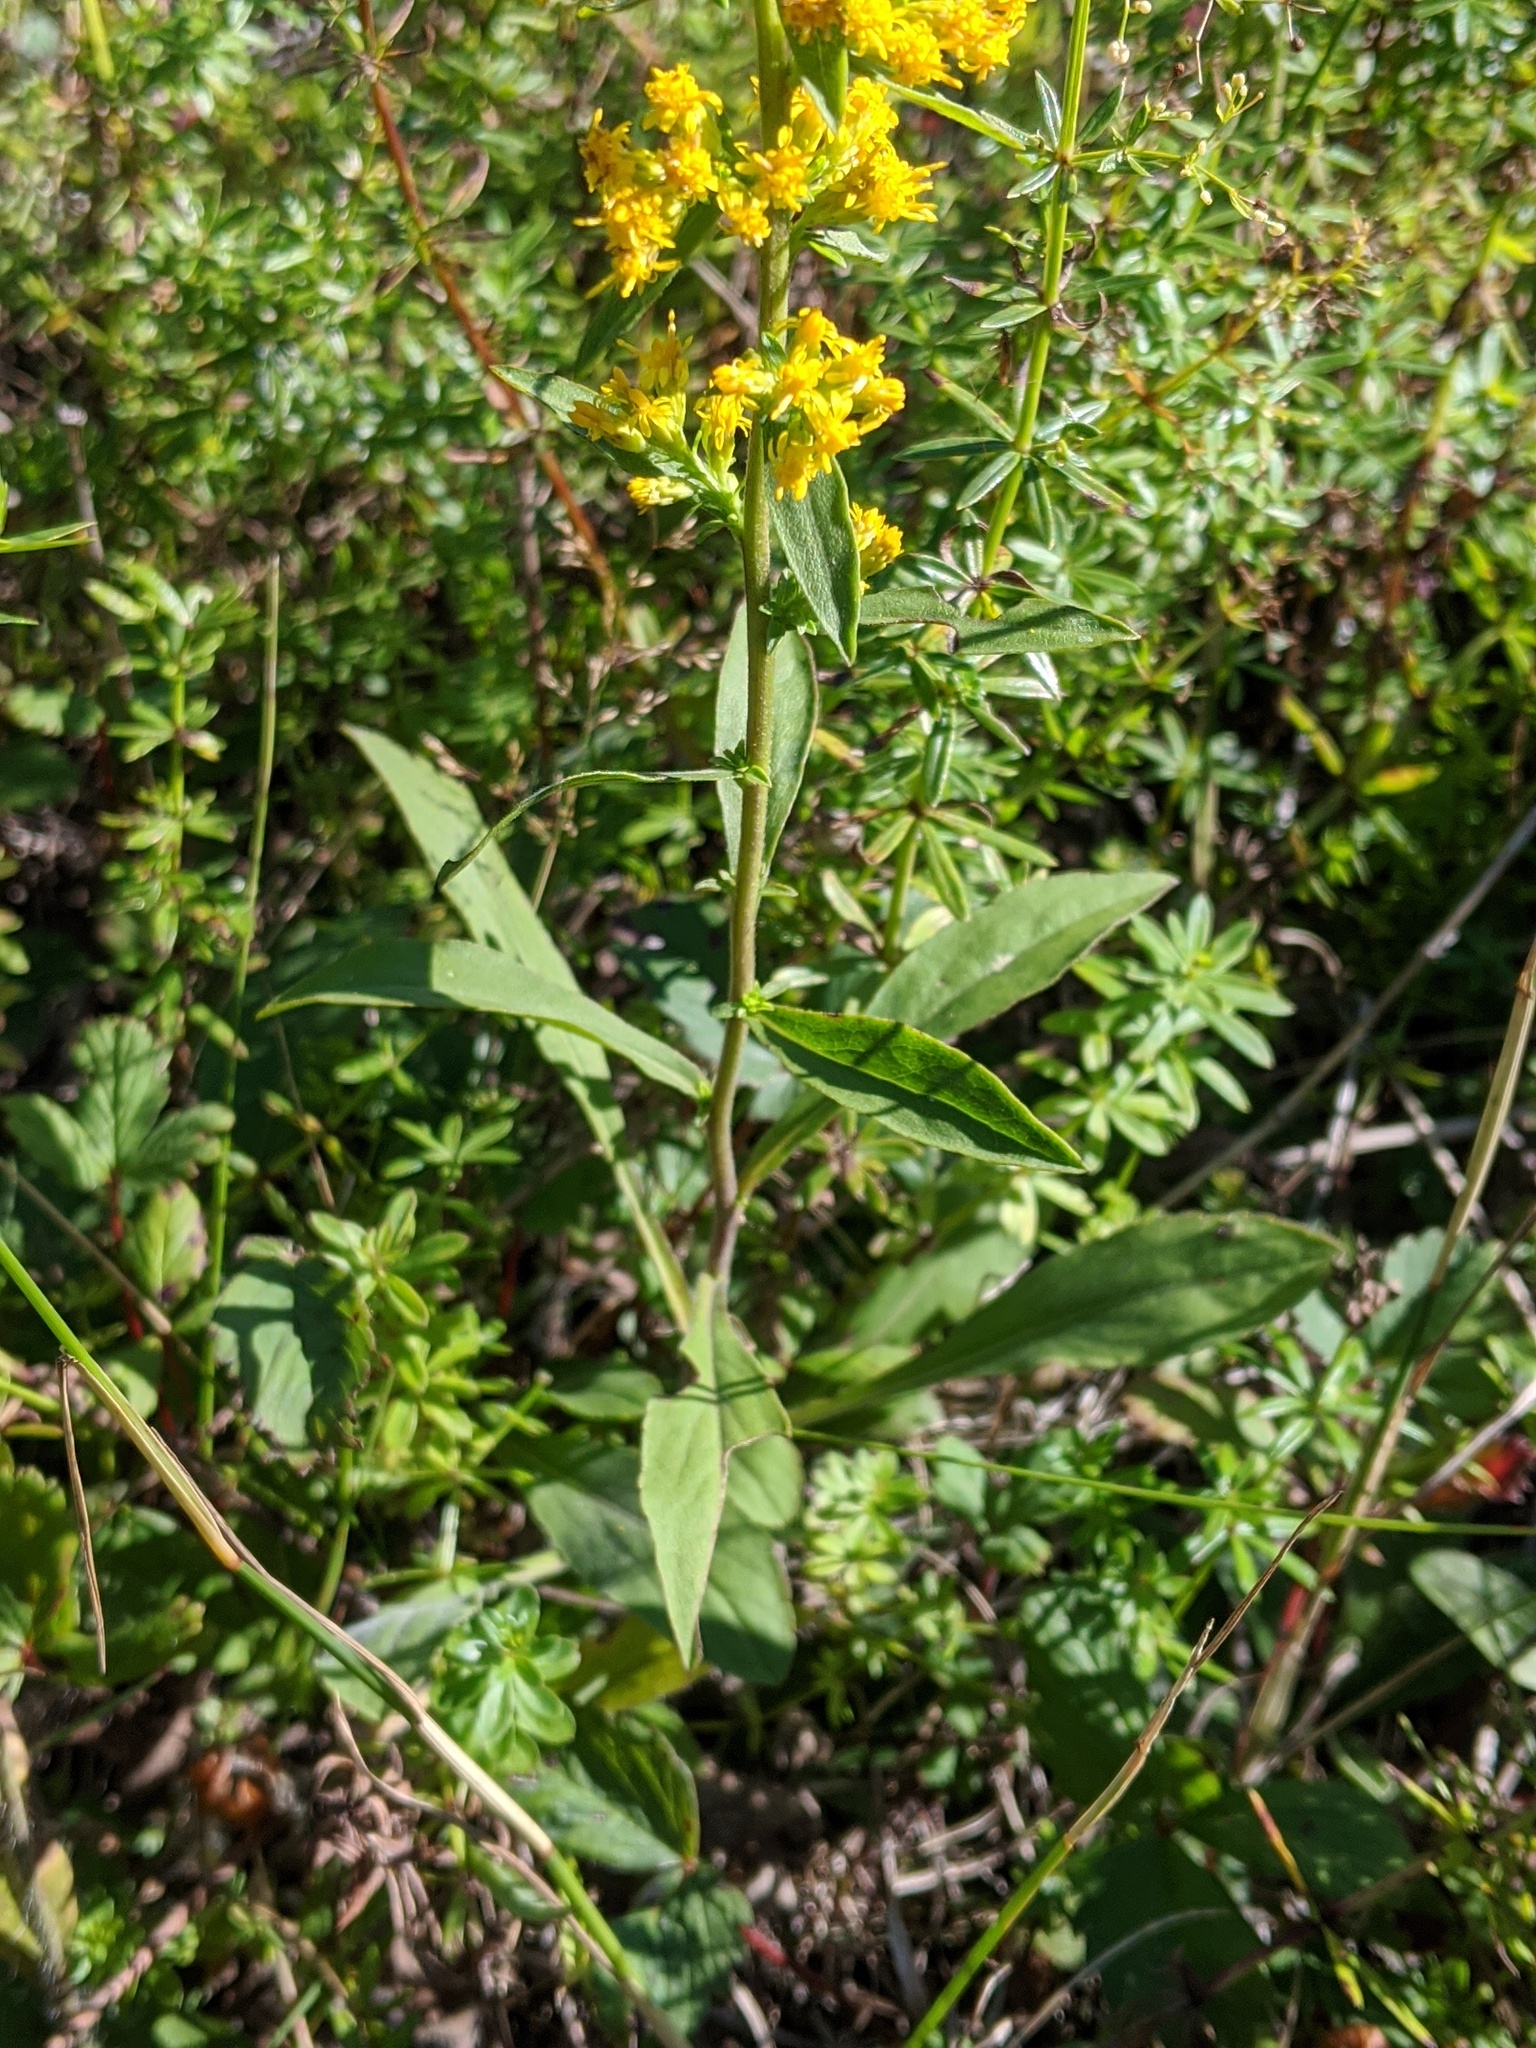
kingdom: Plantae
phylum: Tracheophyta
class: Magnoliopsida
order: Asterales
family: Asteraceae
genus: Solidago
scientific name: Solidago hispida
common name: Hairy goldenrod
